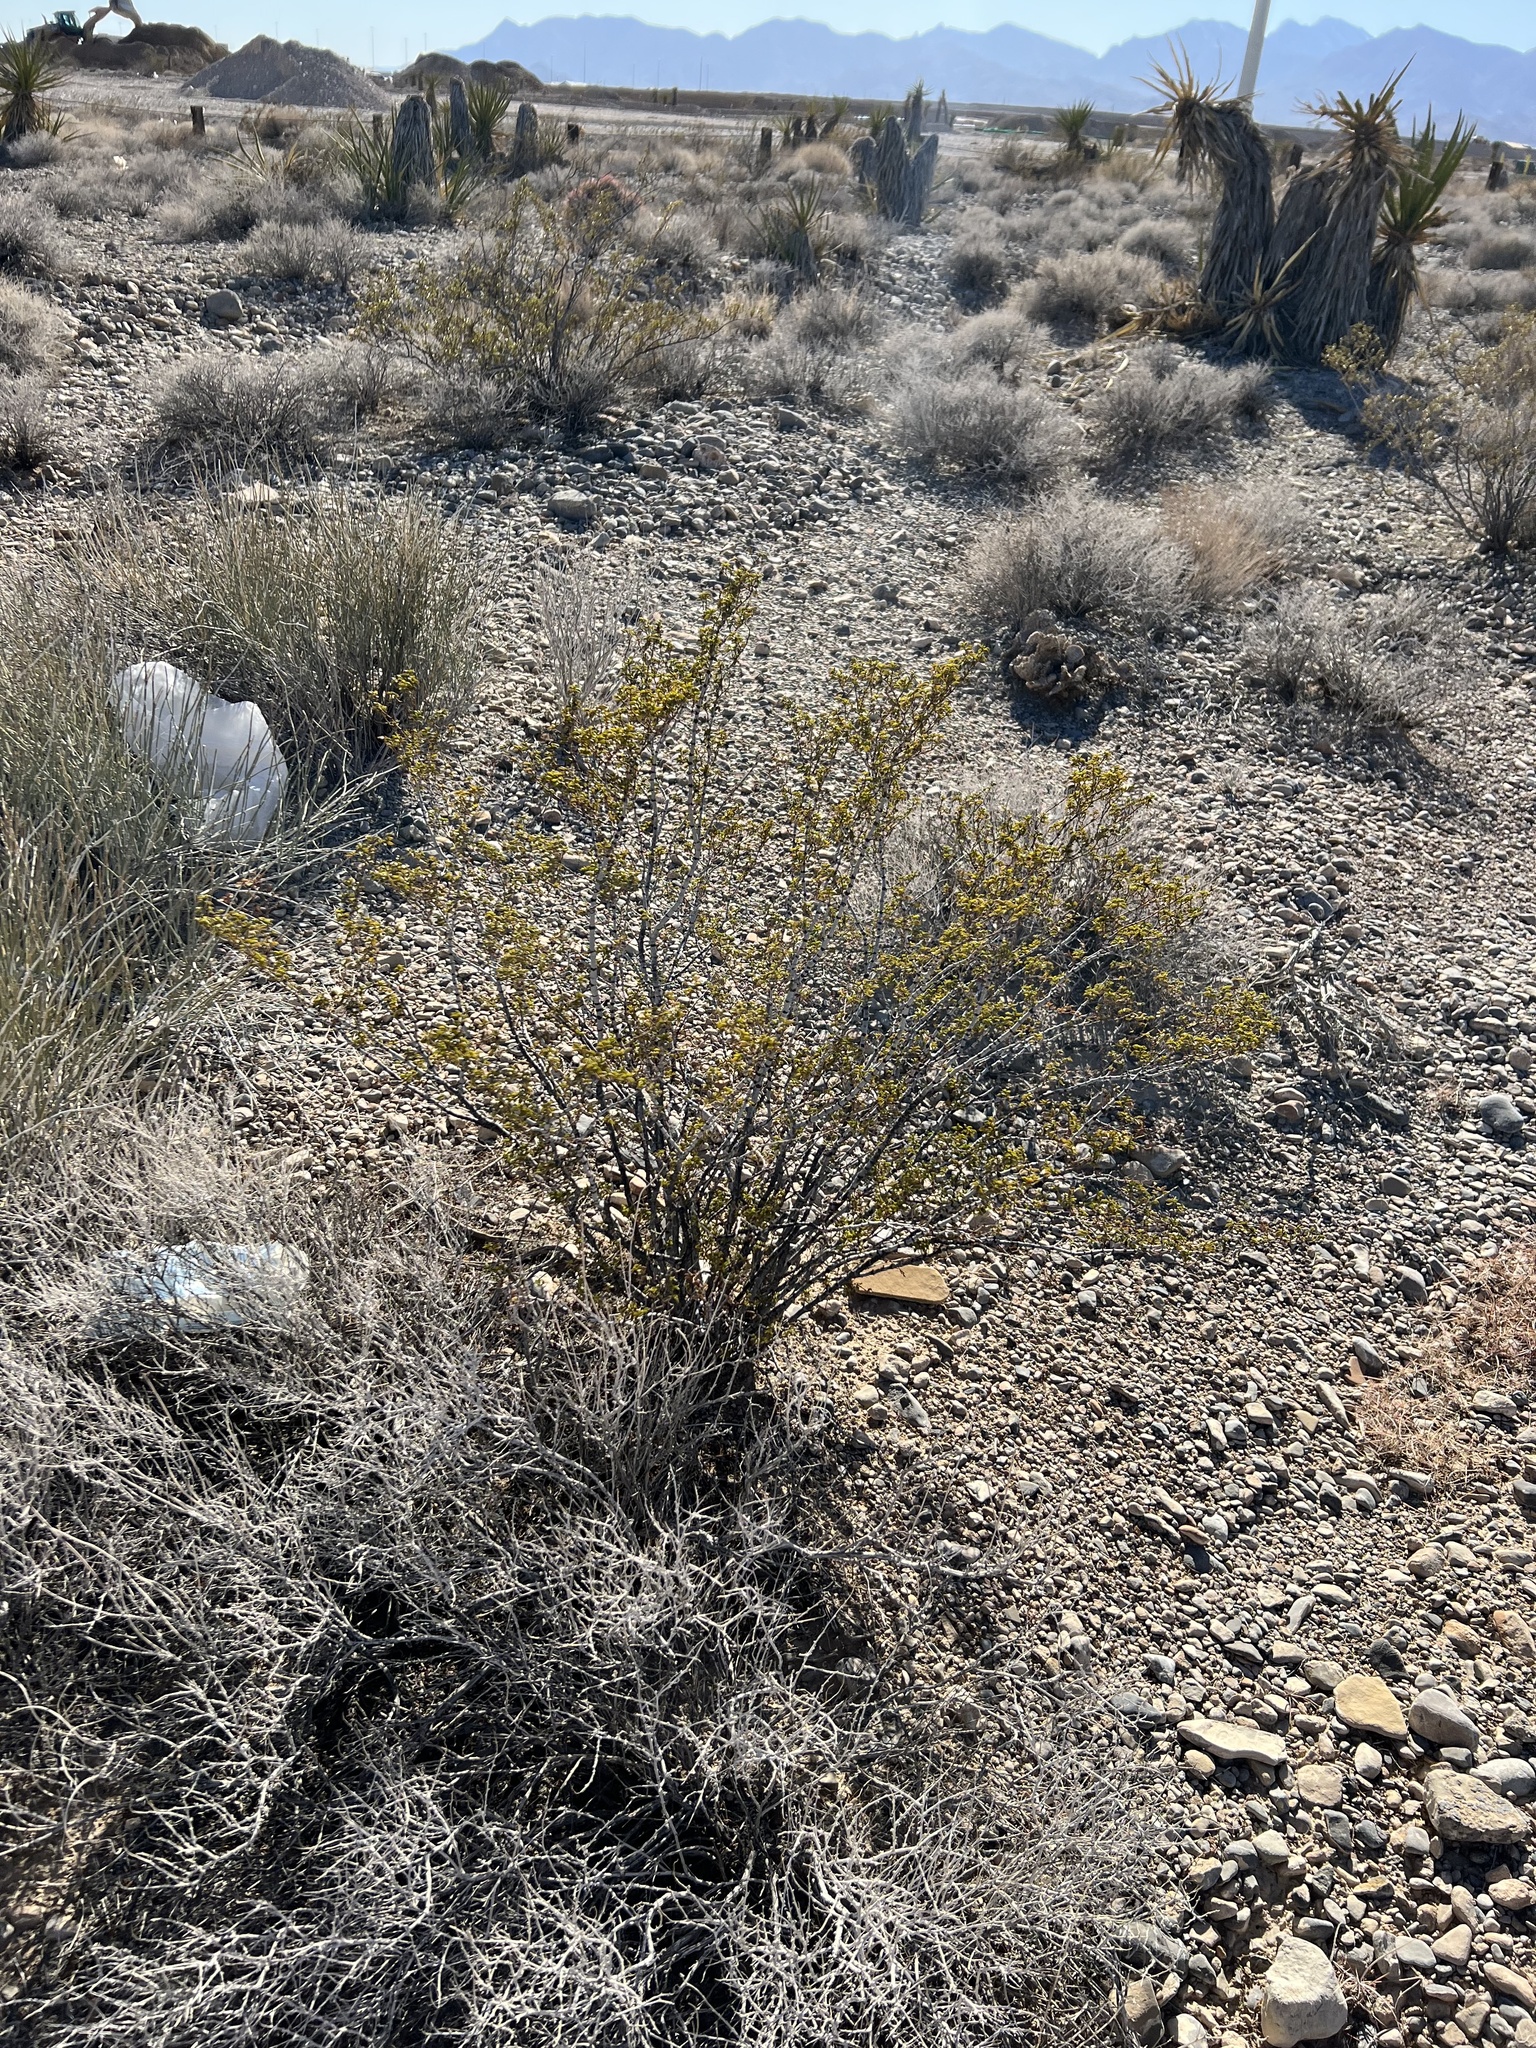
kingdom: Plantae
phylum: Tracheophyta
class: Magnoliopsida
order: Zygophyllales
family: Zygophyllaceae
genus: Larrea
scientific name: Larrea tridentata
